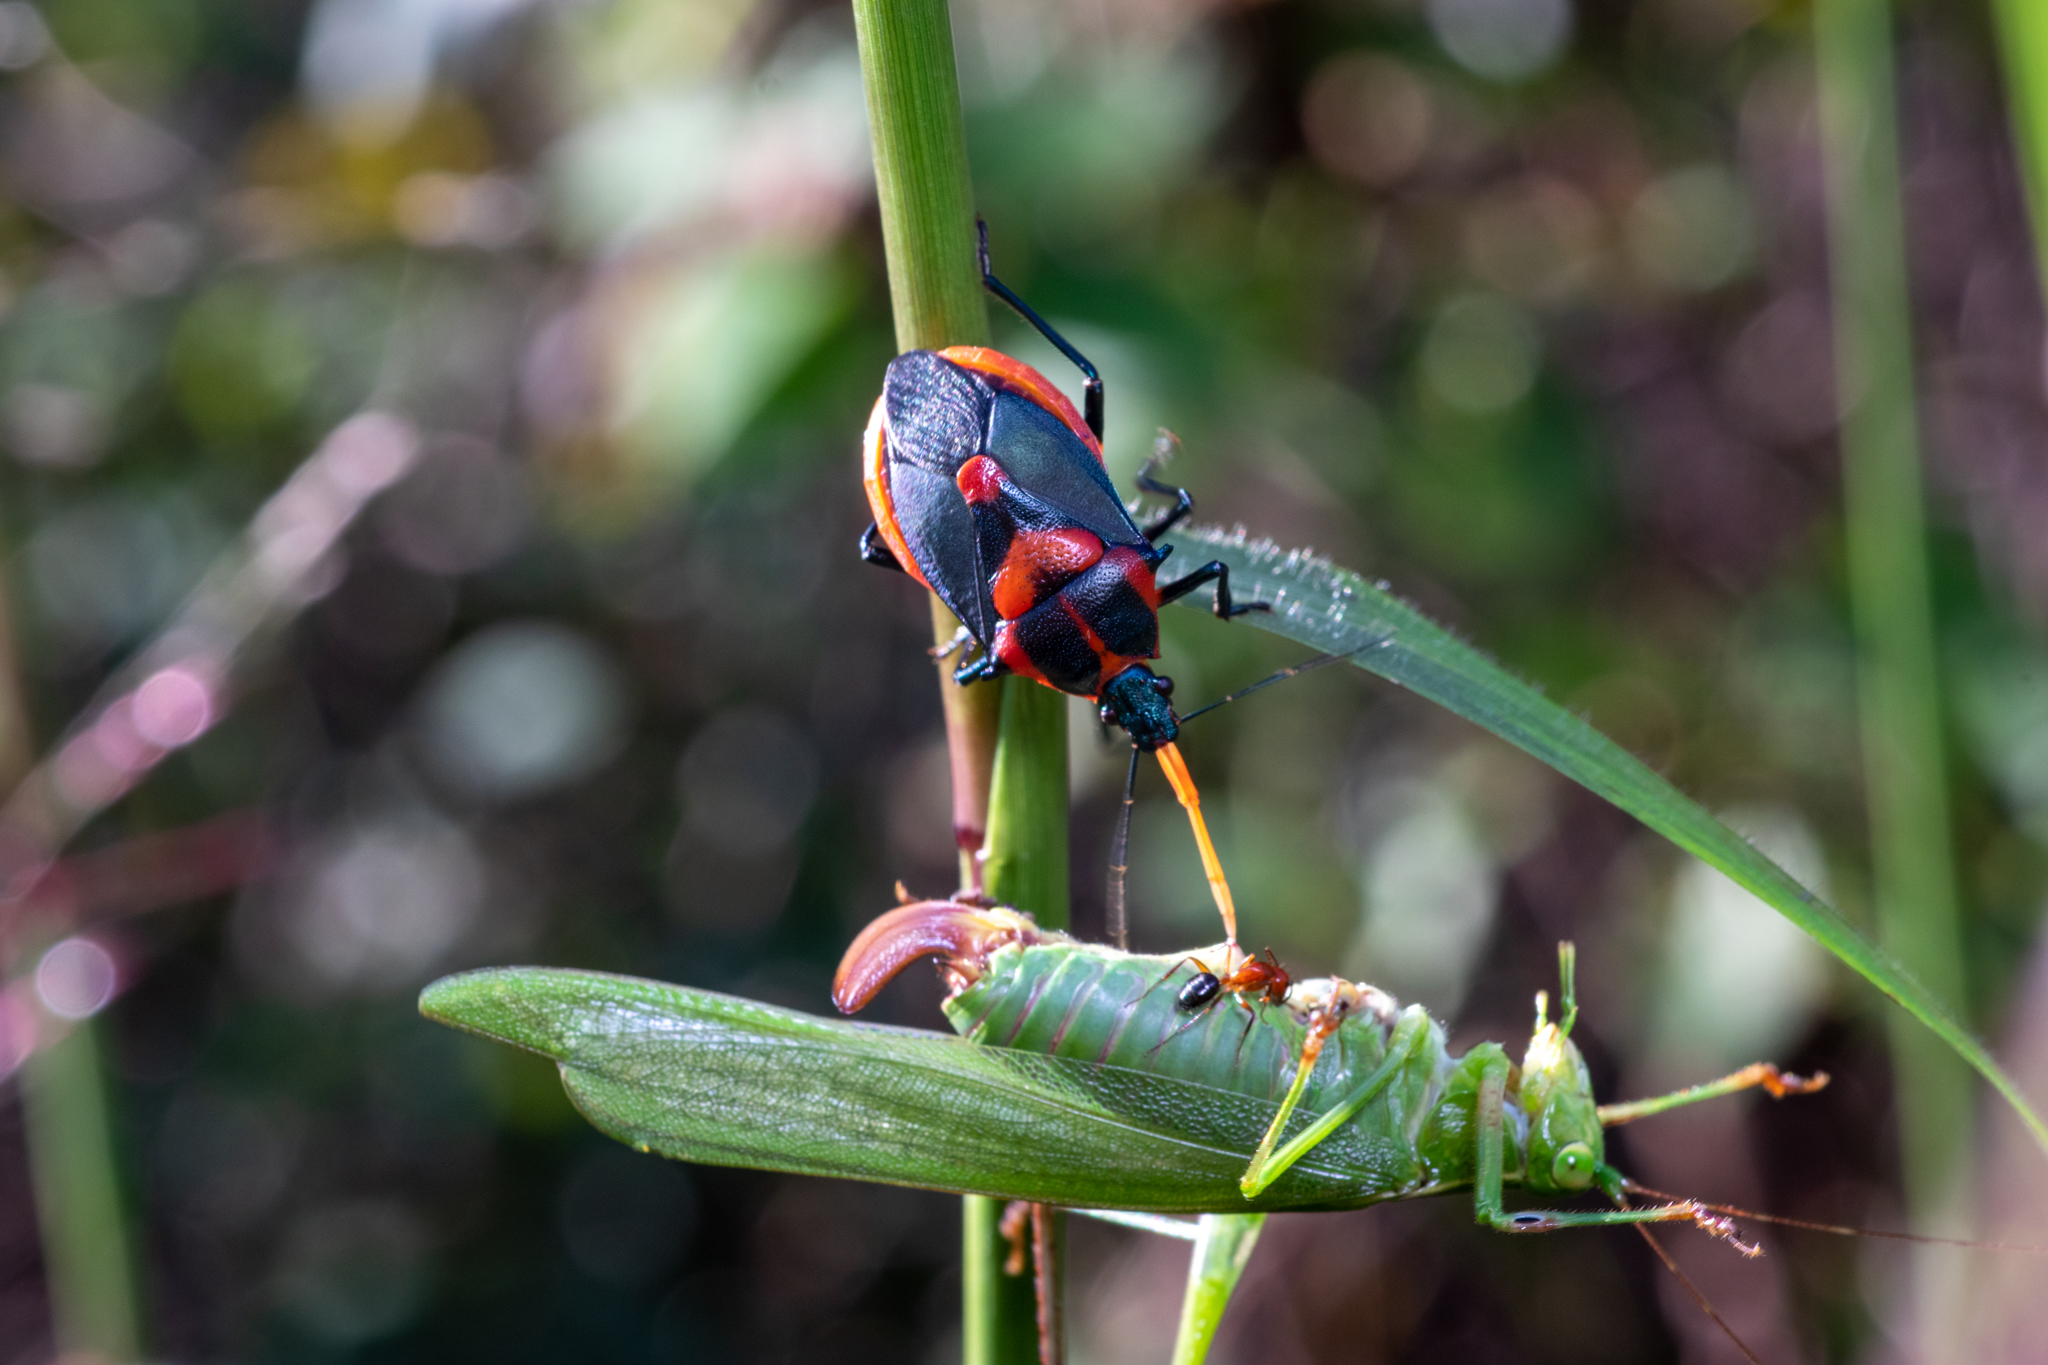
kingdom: Animalia
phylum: Arthropoda
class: Insecta
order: Hemiptera
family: Pentatomidae
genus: Euthyrhynchus
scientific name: Euthyrhynchus floridanus
